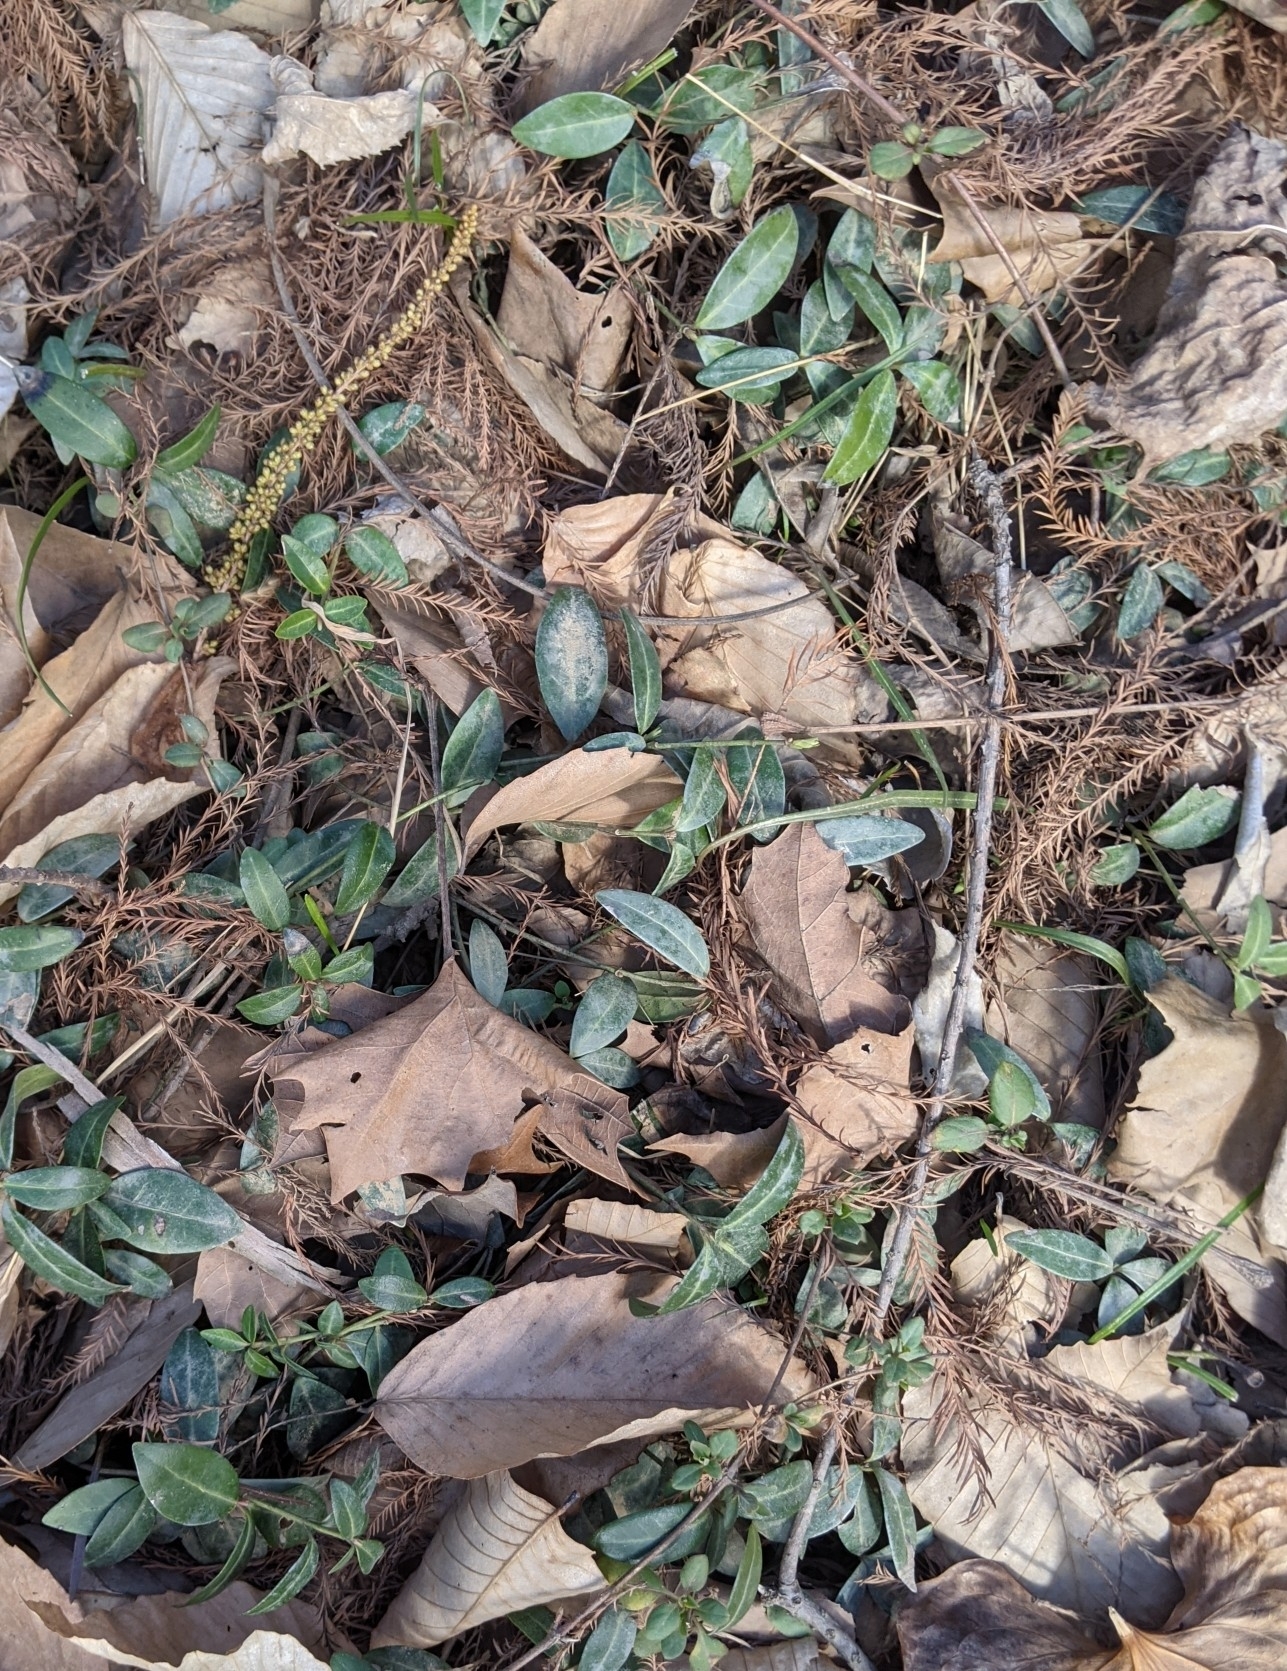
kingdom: Plantae
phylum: Tracheophyta
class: Magnoliopsida
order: Gentianales
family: Apocynaceae
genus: Vinca
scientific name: Vinca minor
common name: Lesser periwinkle
